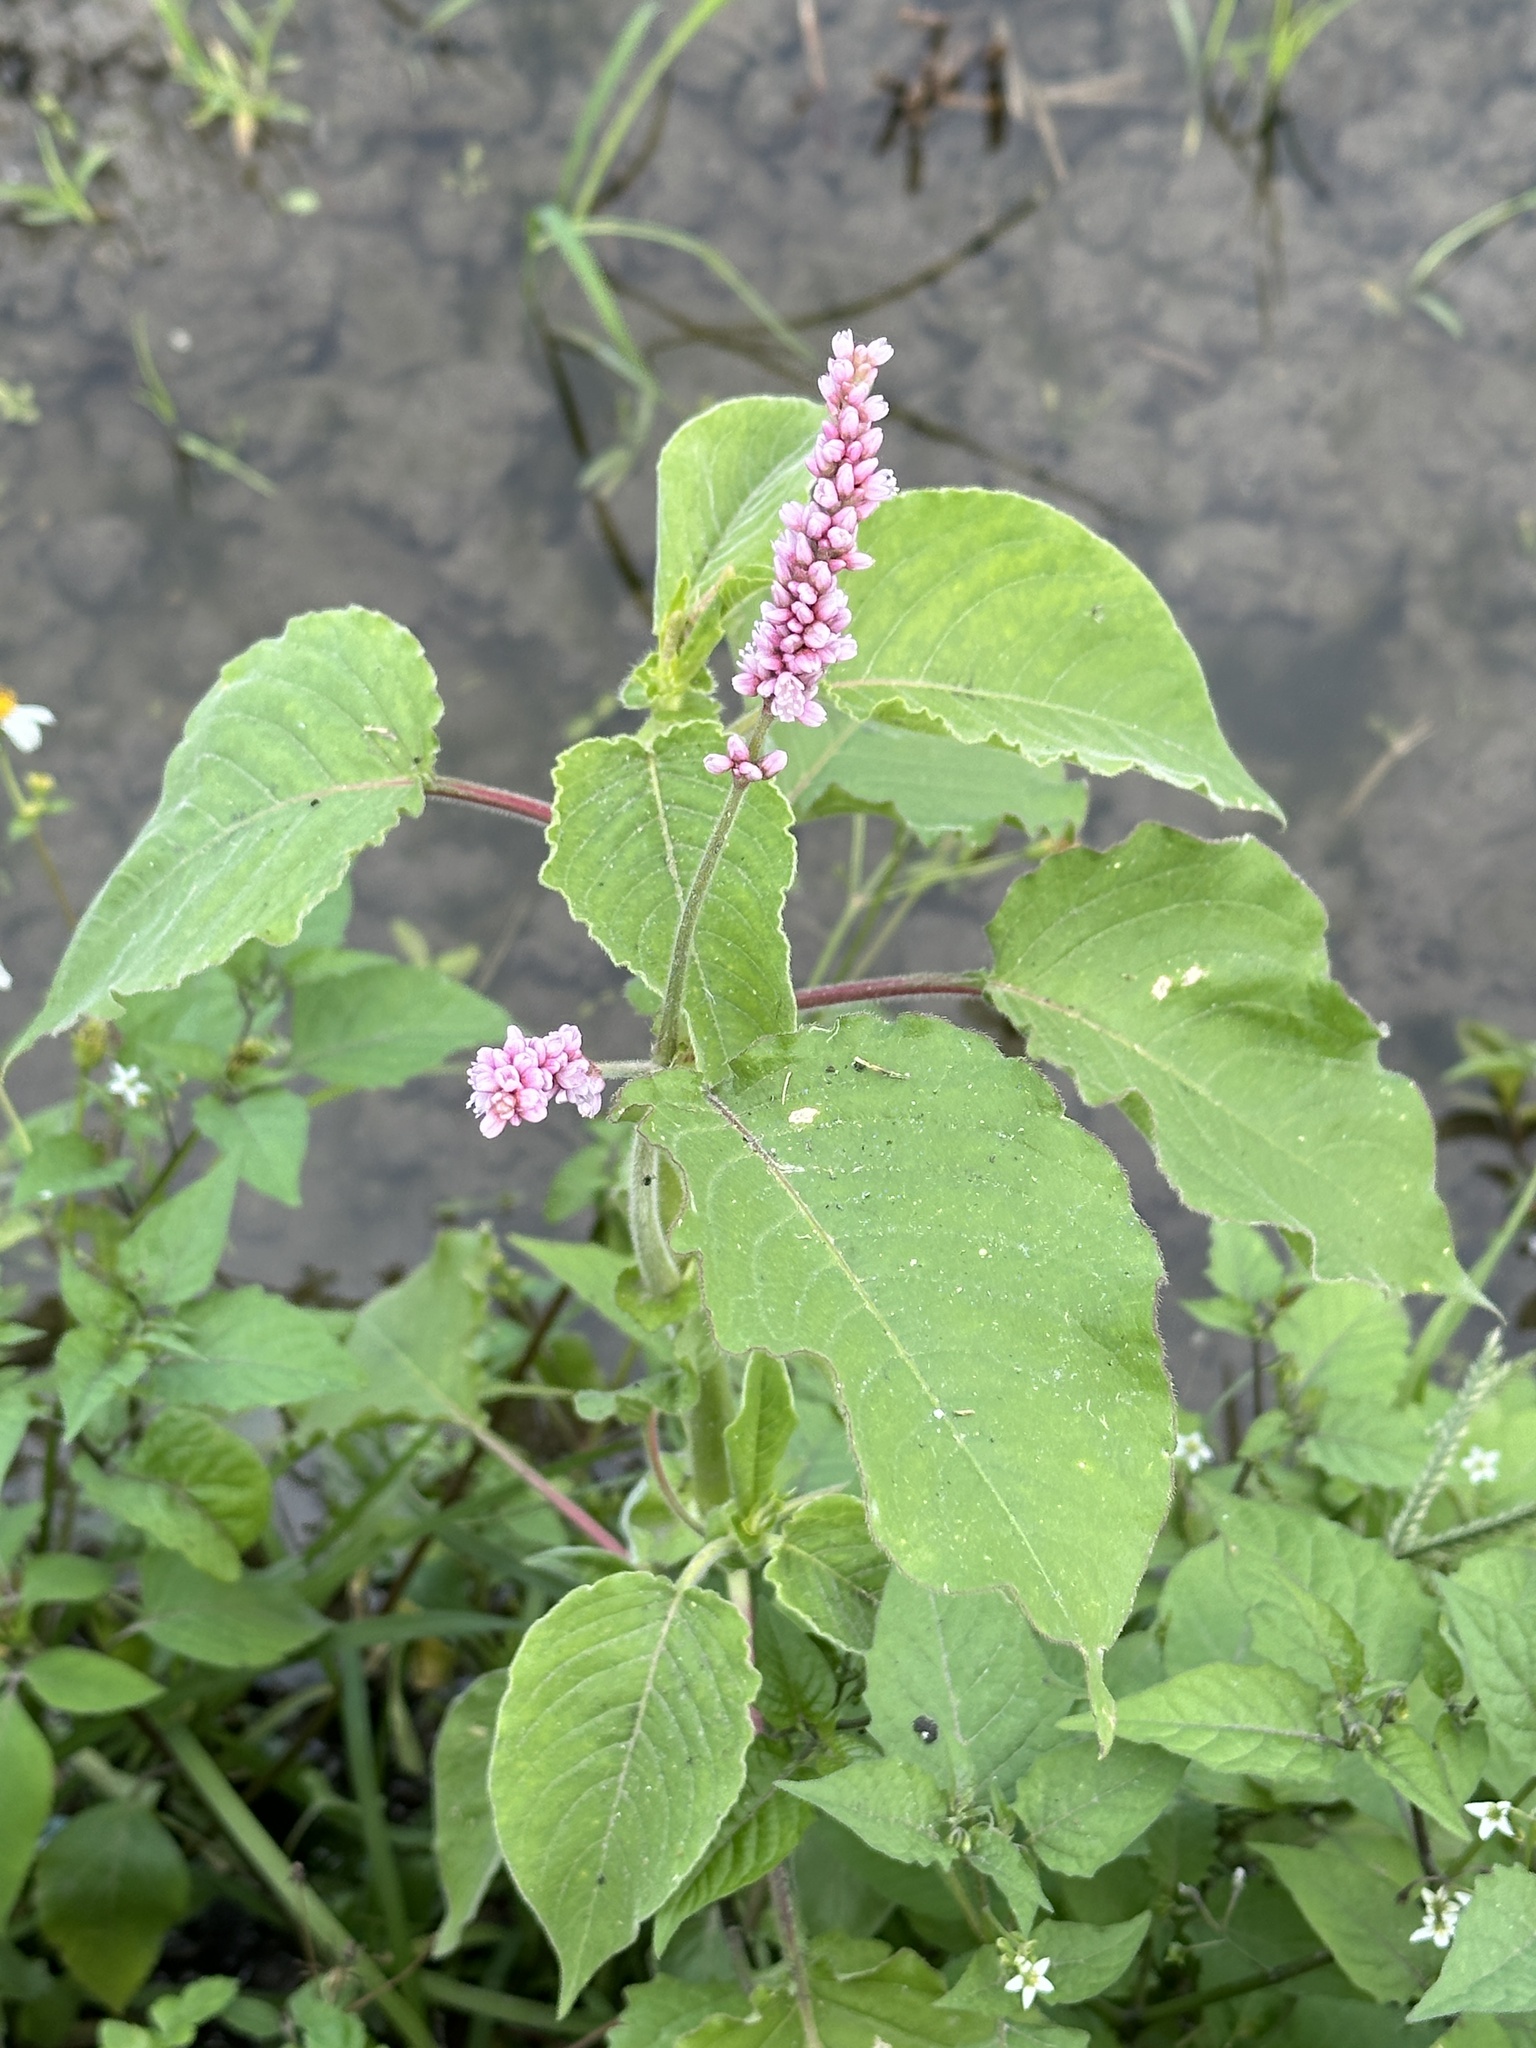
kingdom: Plantae
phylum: Tracheophyta
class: Magnoliopsida
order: Caryophyllales
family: Polygonaceae
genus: Persicaria
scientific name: Persicaria orientalis
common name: Kiss-me-over-the-garden-gate
